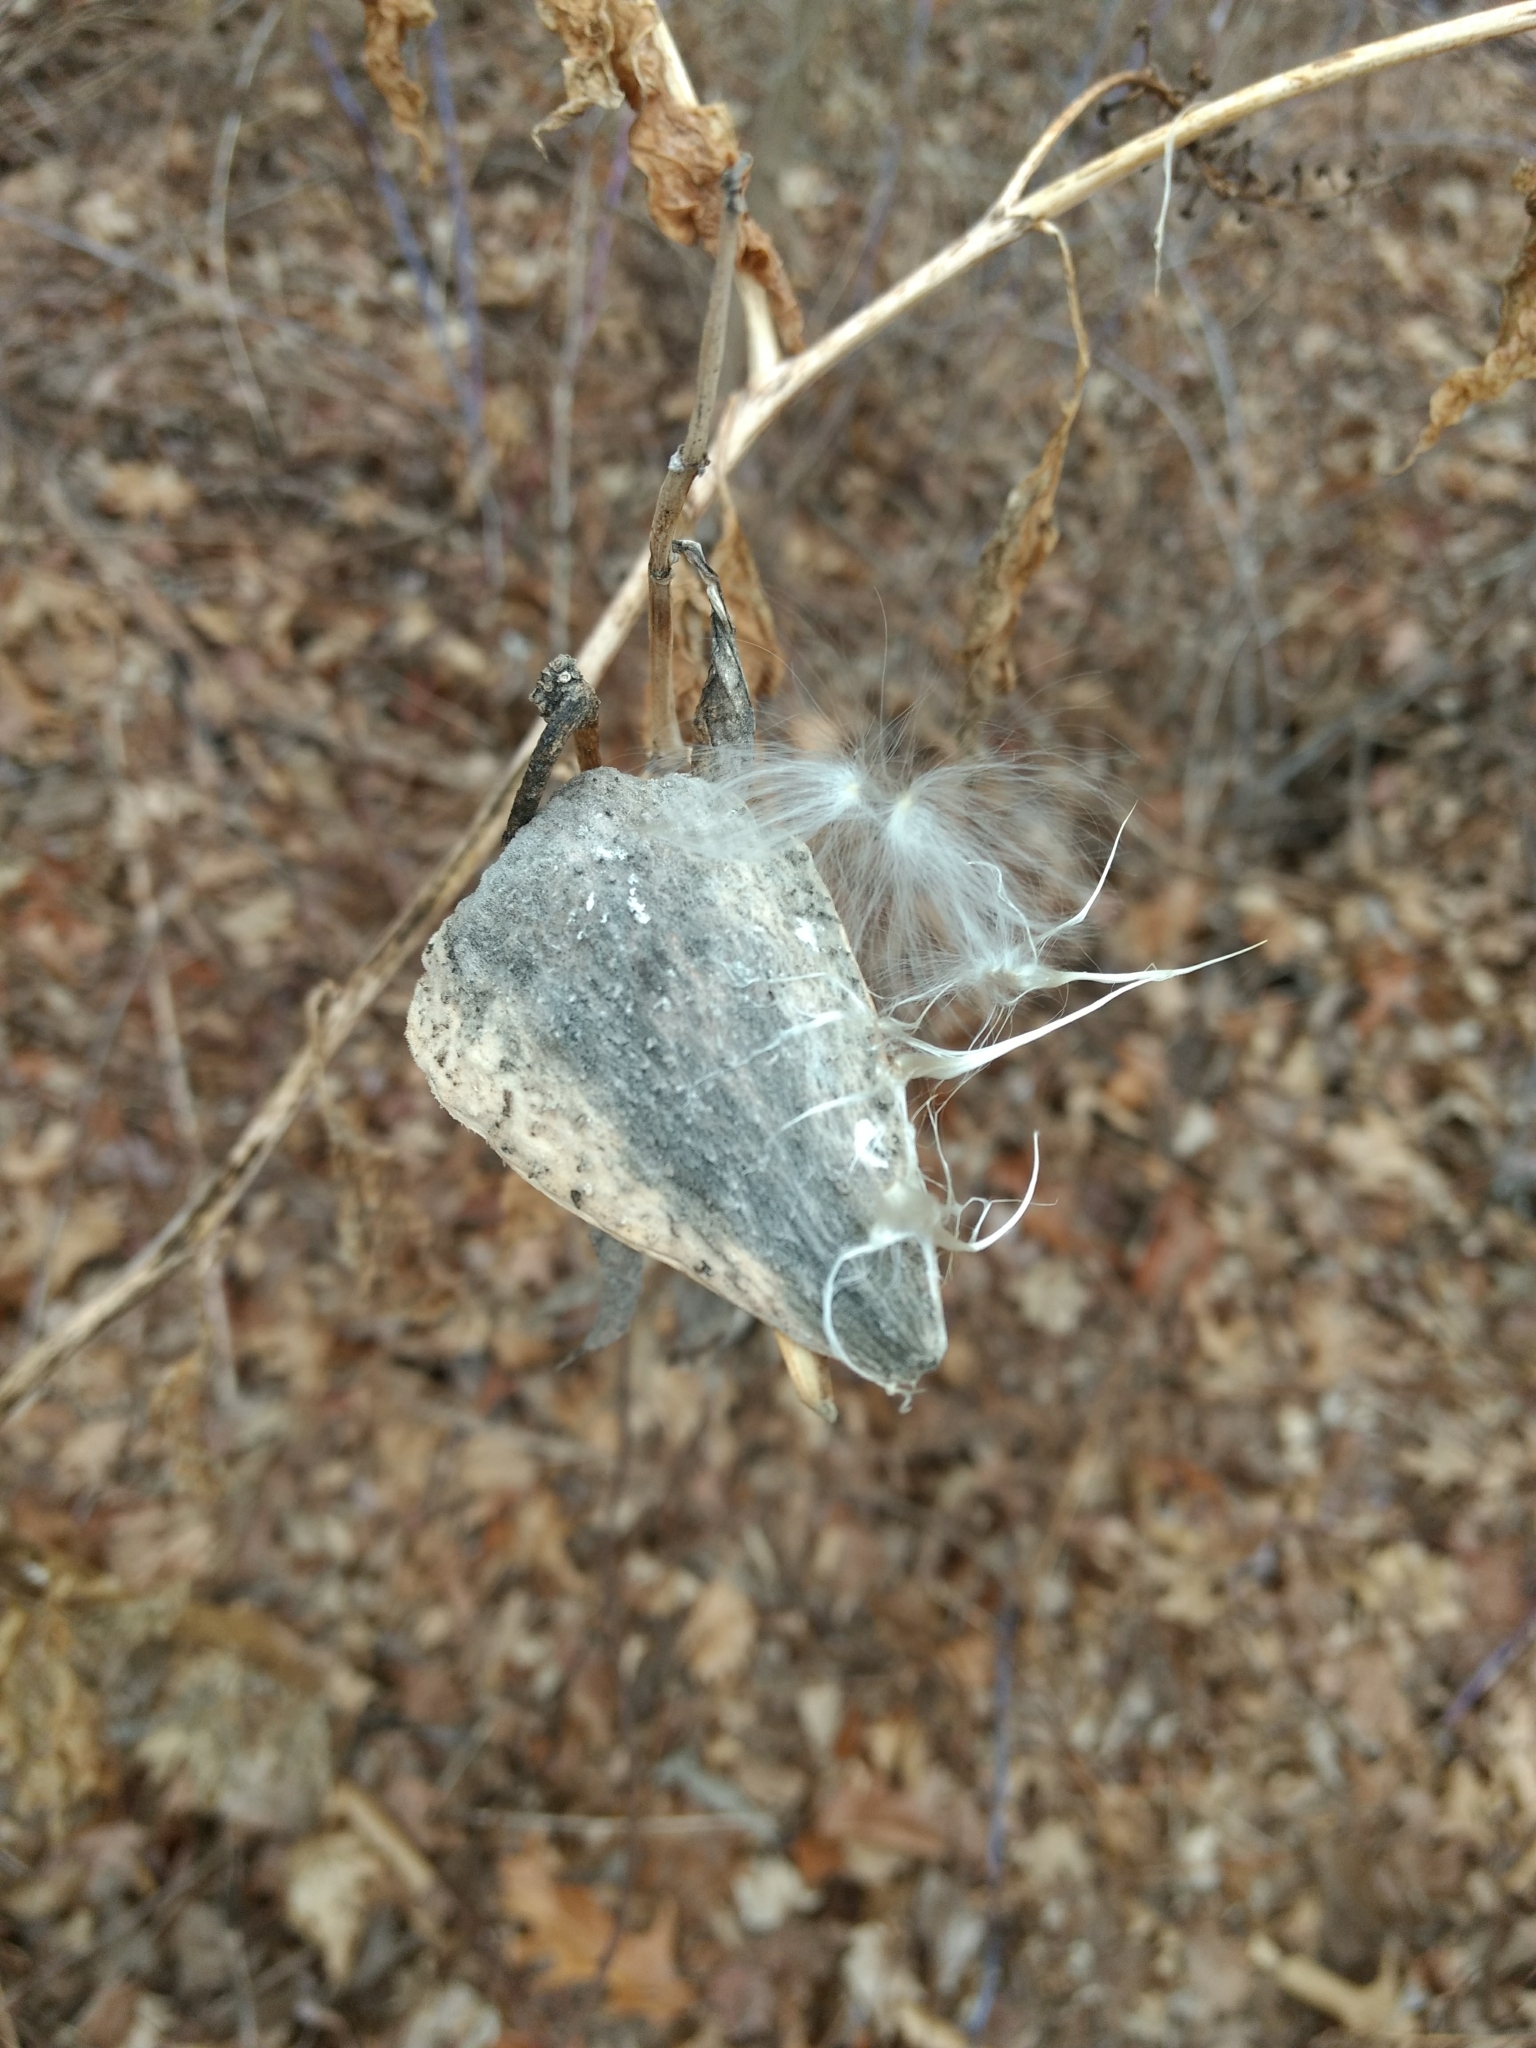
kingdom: Plantae
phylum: Tracheophyta
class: Magnoliopsida
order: Gentianales
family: Apocynaceae
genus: Asclepias
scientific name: Asclepias syriaca
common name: Common milkweed
